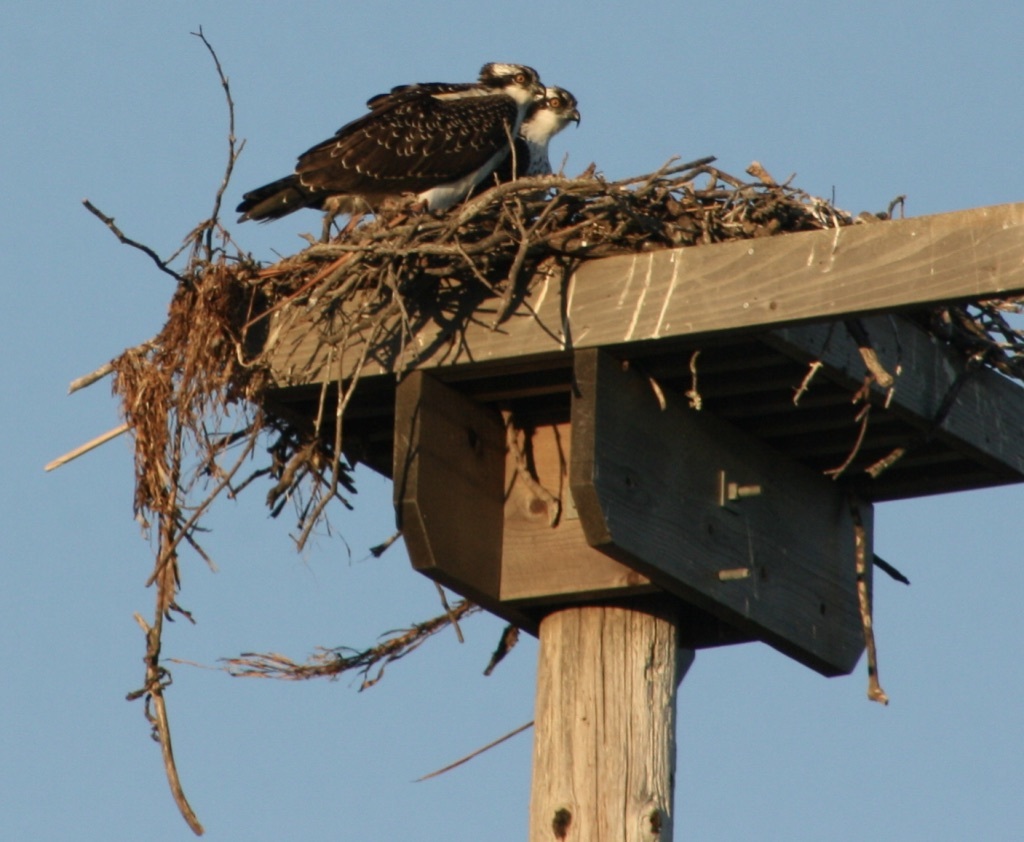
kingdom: Animalia
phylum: Chordata
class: Aves
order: Accipitriformes
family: Pandionidae
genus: Pandion
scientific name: Pandion haliaetus
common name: Osprey
